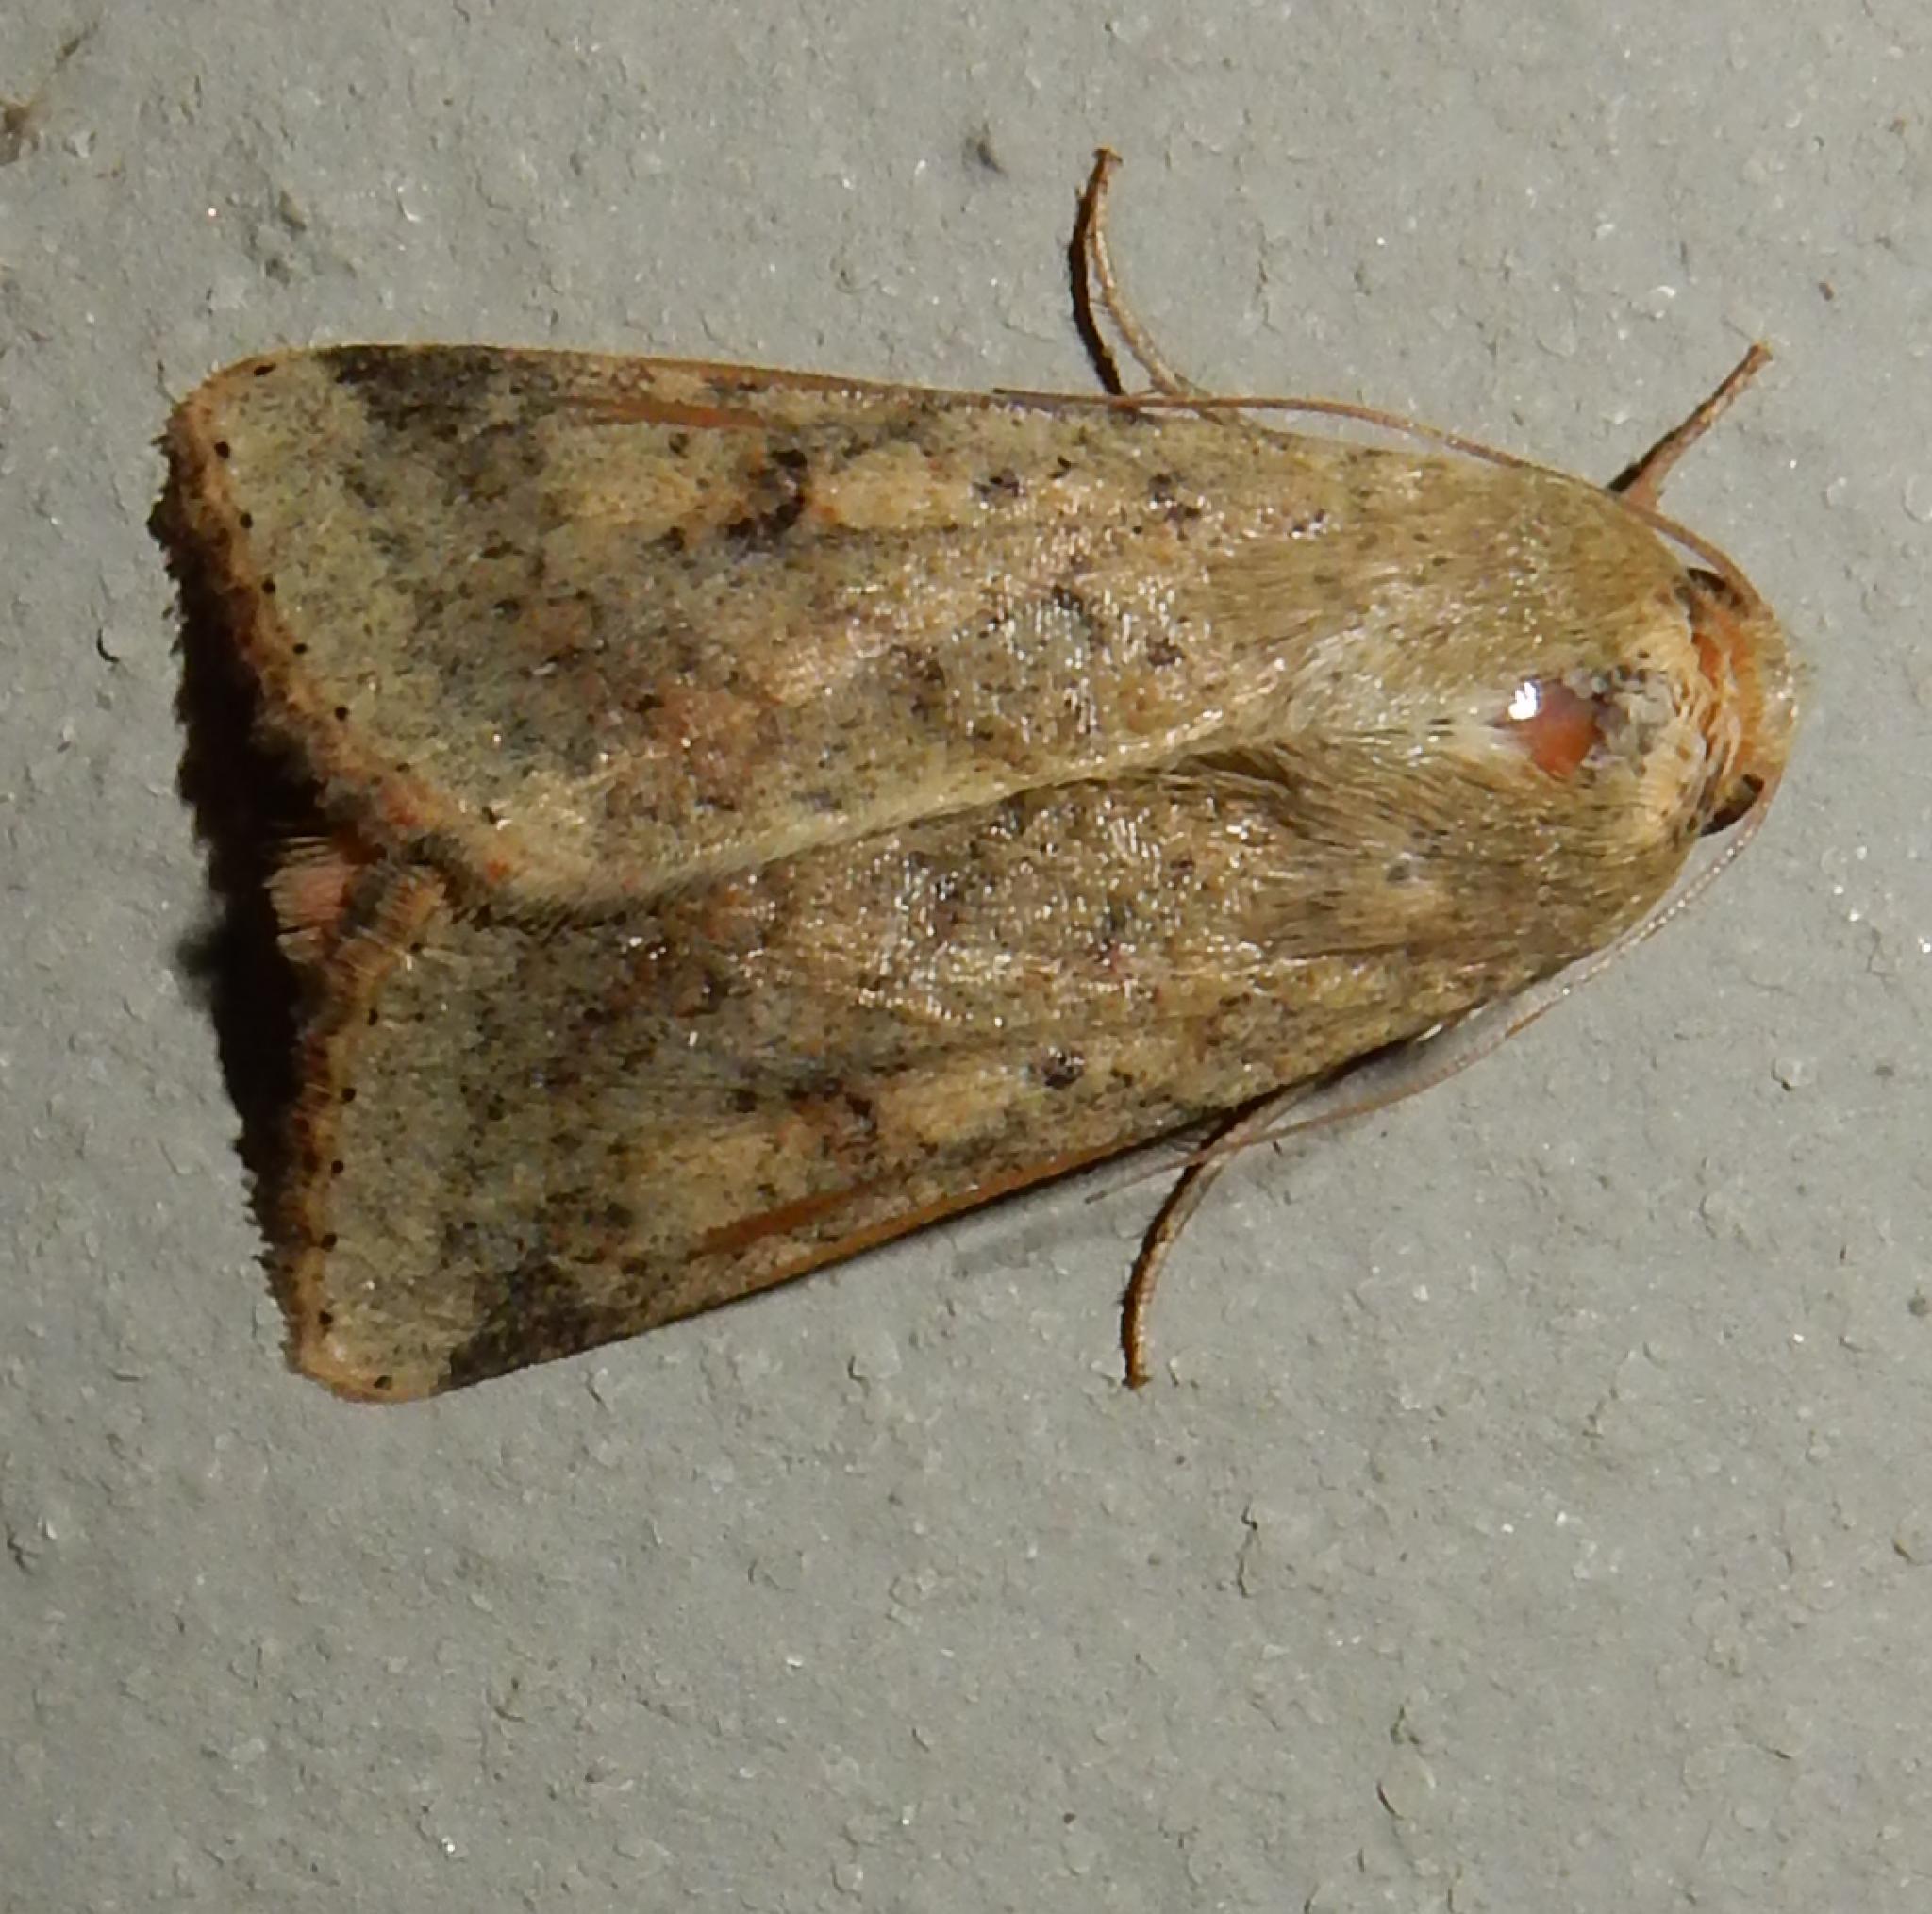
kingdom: Animalia
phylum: Arthropoda
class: Insecta
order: Lepidoptera
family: Noctuidae
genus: Helicoverpa
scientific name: Helicoverpa armigera
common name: Cotton bollworm
